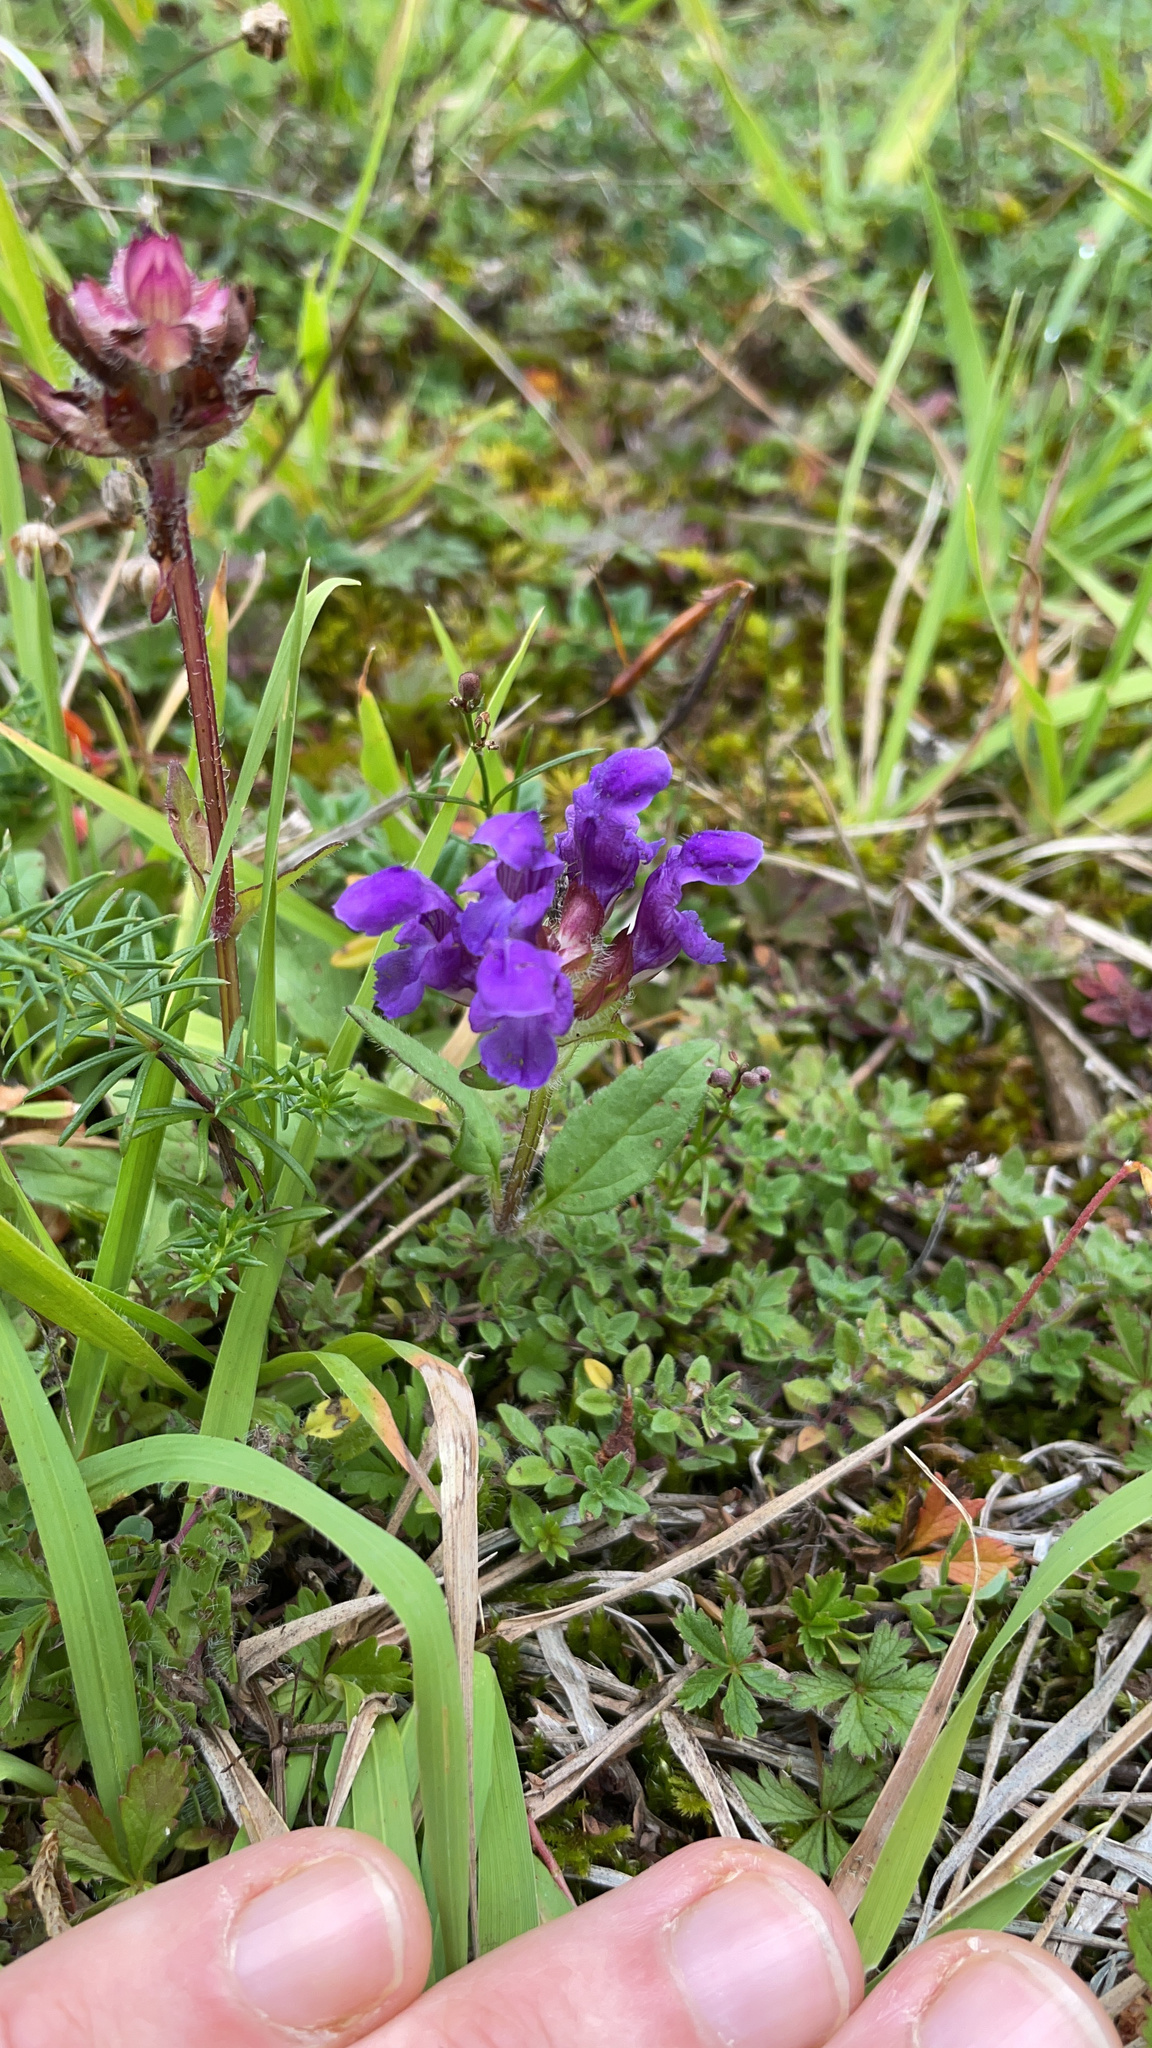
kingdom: Plantae
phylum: Tracheophyta
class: Magnoliopsida
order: Lamiales
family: Lamiaceae
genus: Prunella
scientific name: Prunella grandiflora
